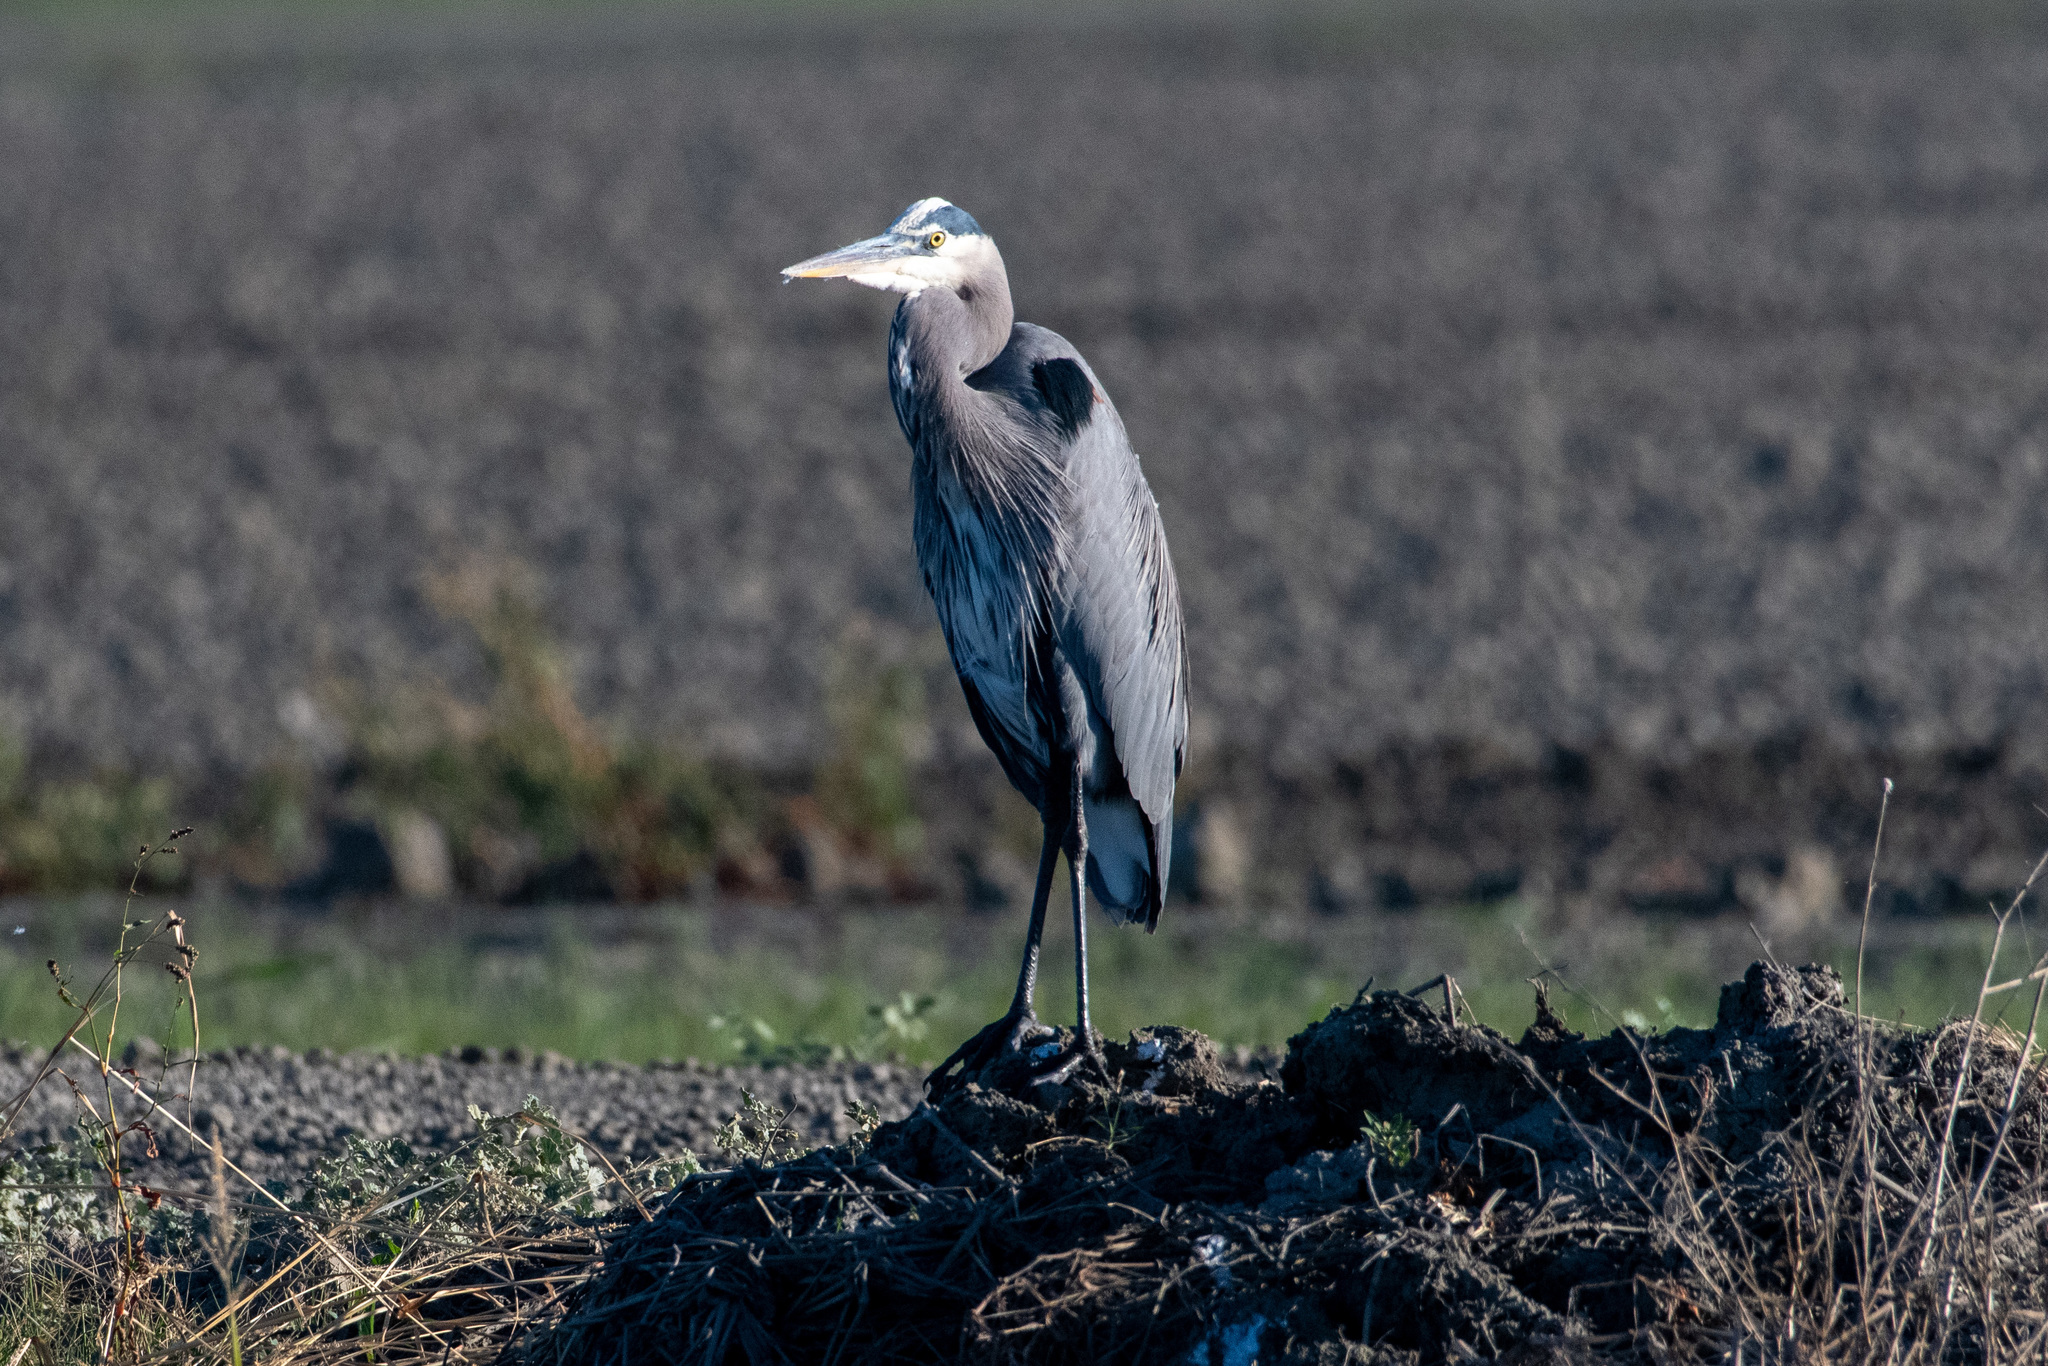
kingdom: Animalia
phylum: Chordata
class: Aves
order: Pelecaniformes
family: Ardeidae
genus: Ardea
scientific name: Ardea herodias
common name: Great blue heron
